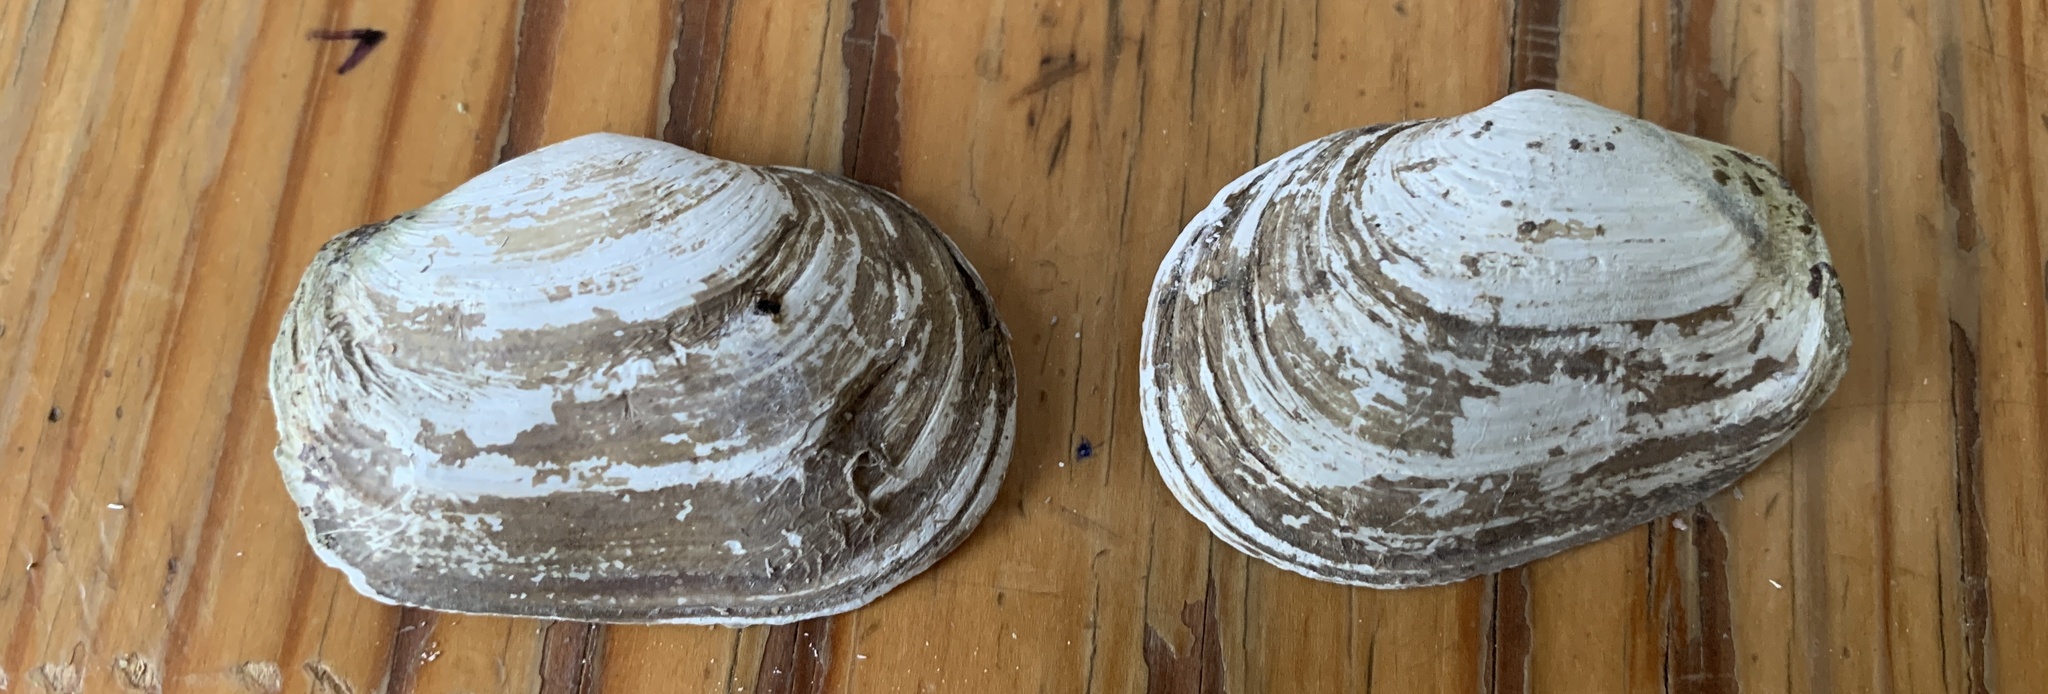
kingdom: Animalia
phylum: Mollusca
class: Bivalvia
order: Myida
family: Myidae
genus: Mya
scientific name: Mya truncata
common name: Blunt gaper
